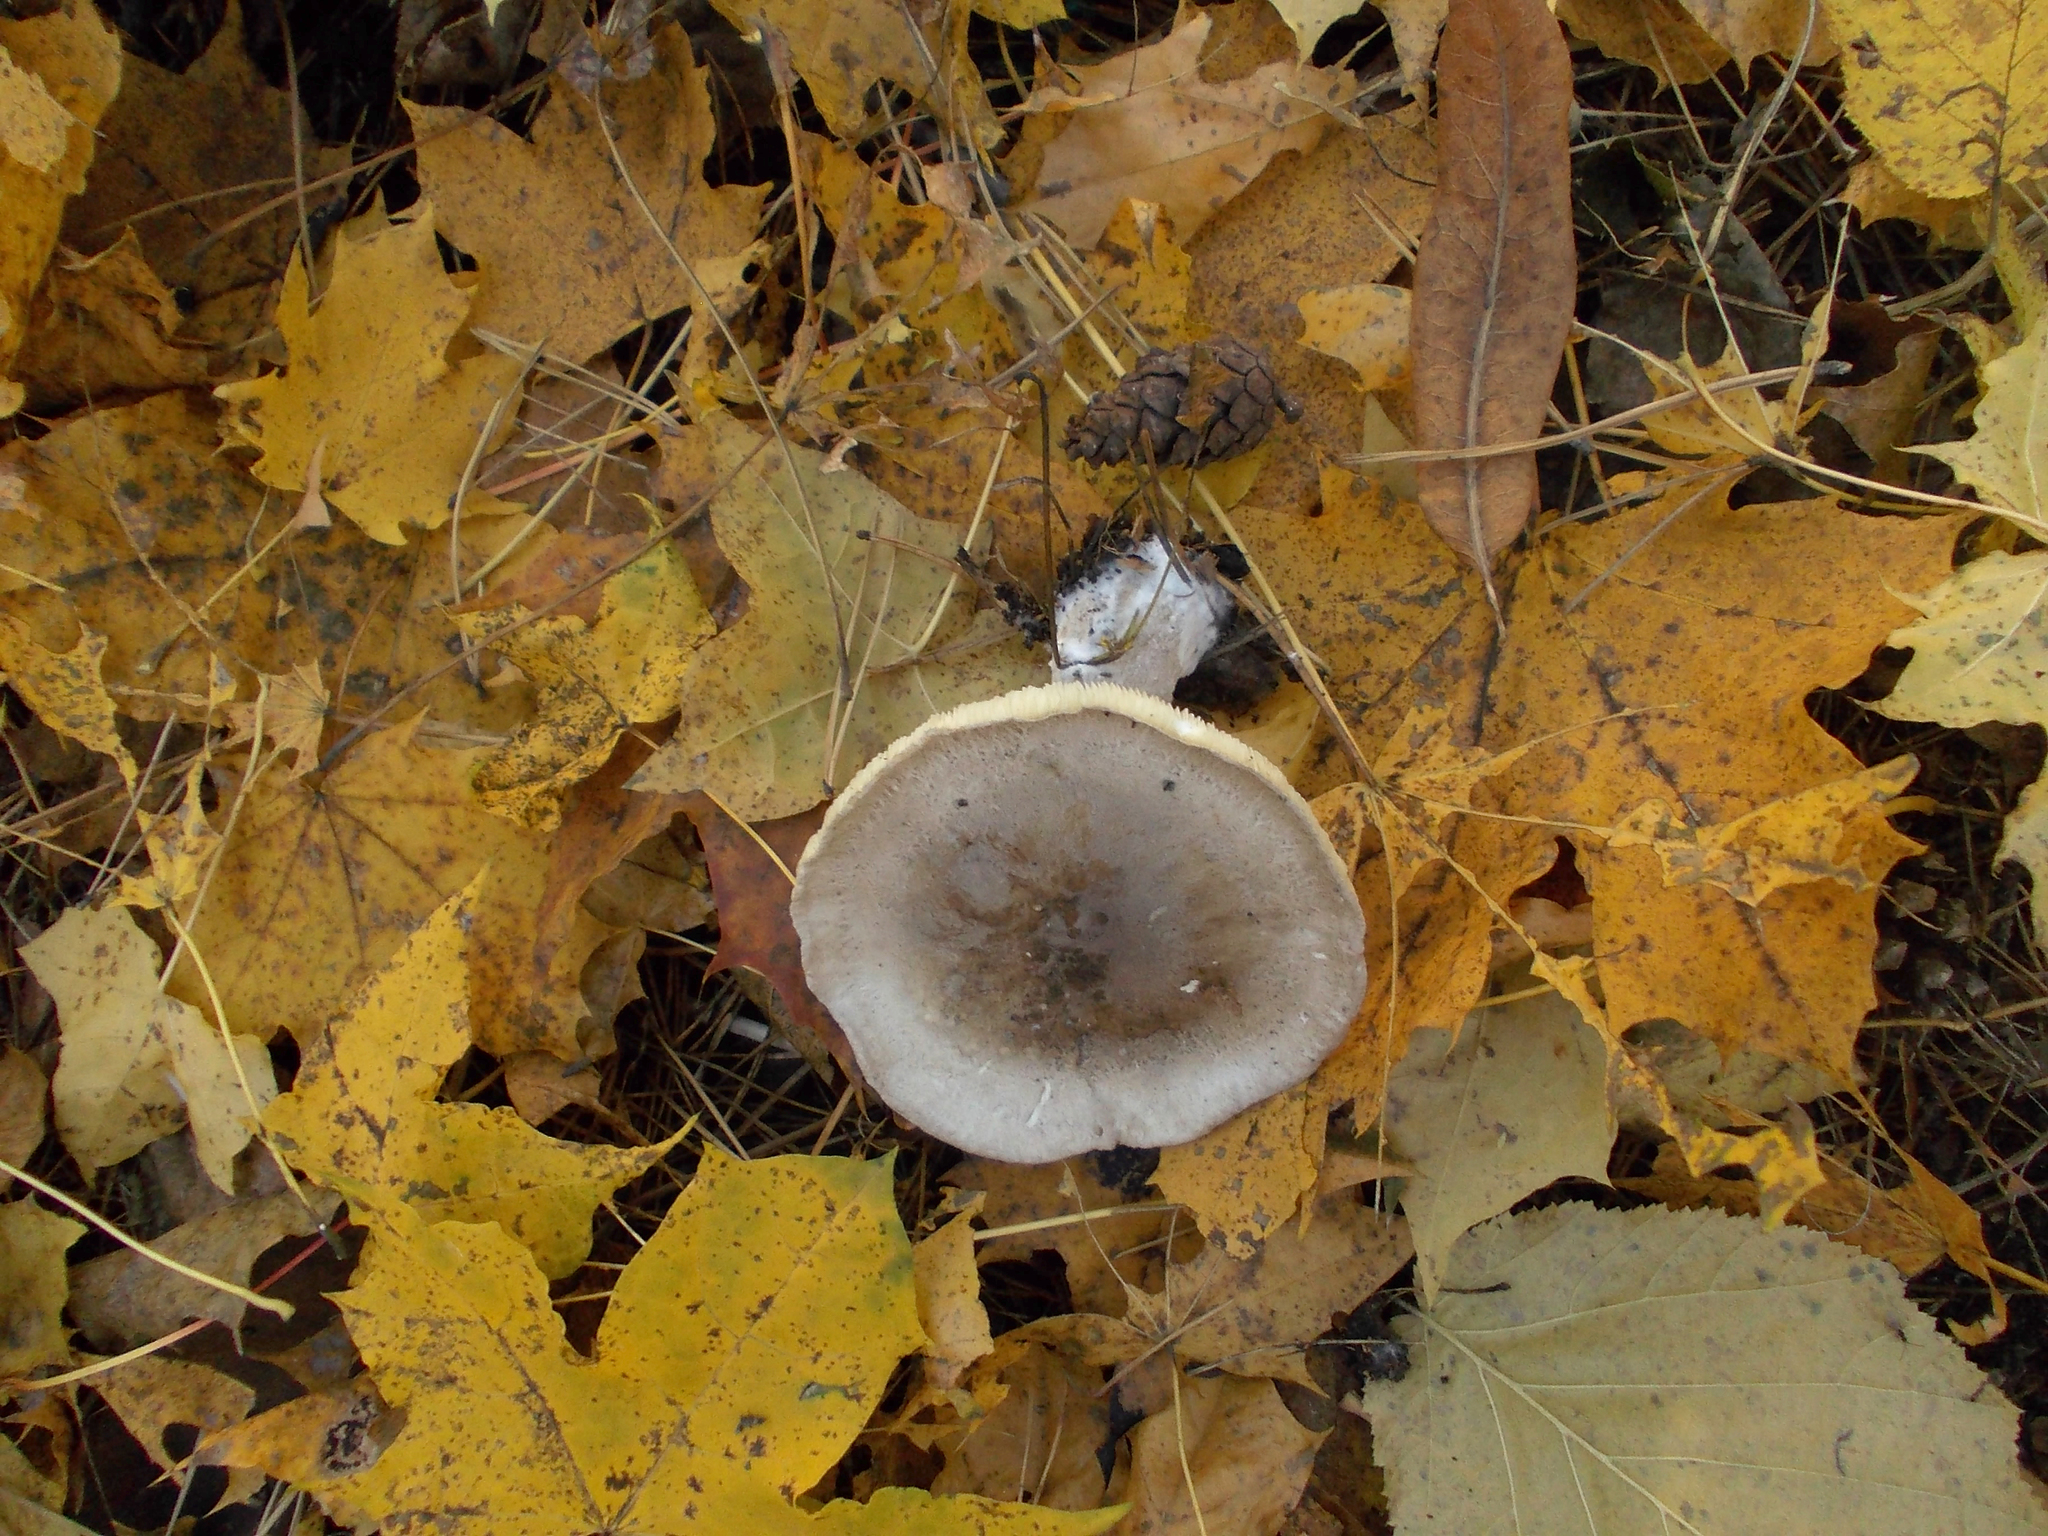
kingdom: Fungi
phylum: Basidiomycota
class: Agaricomycetes
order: Agaricales
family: Tricholomataceae
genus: Clitocybe
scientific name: Clitocybe nebularis
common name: Clouded agaric
